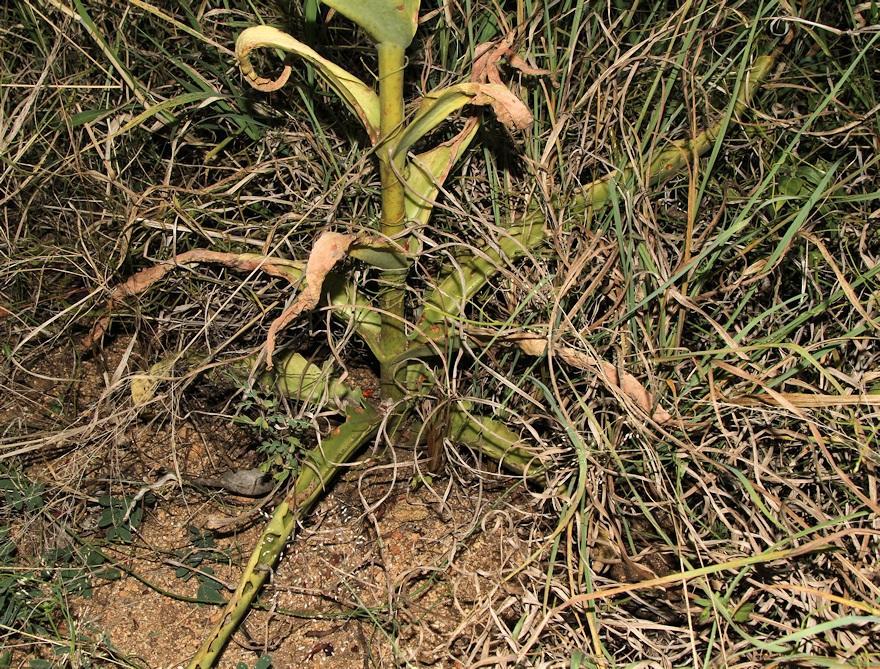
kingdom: Plantae
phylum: Tracheophyta
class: Magnoliopsida
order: Saxifragales
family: Crassulaceae
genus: Kalanchoe
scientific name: Kalanchoe brachyloba
